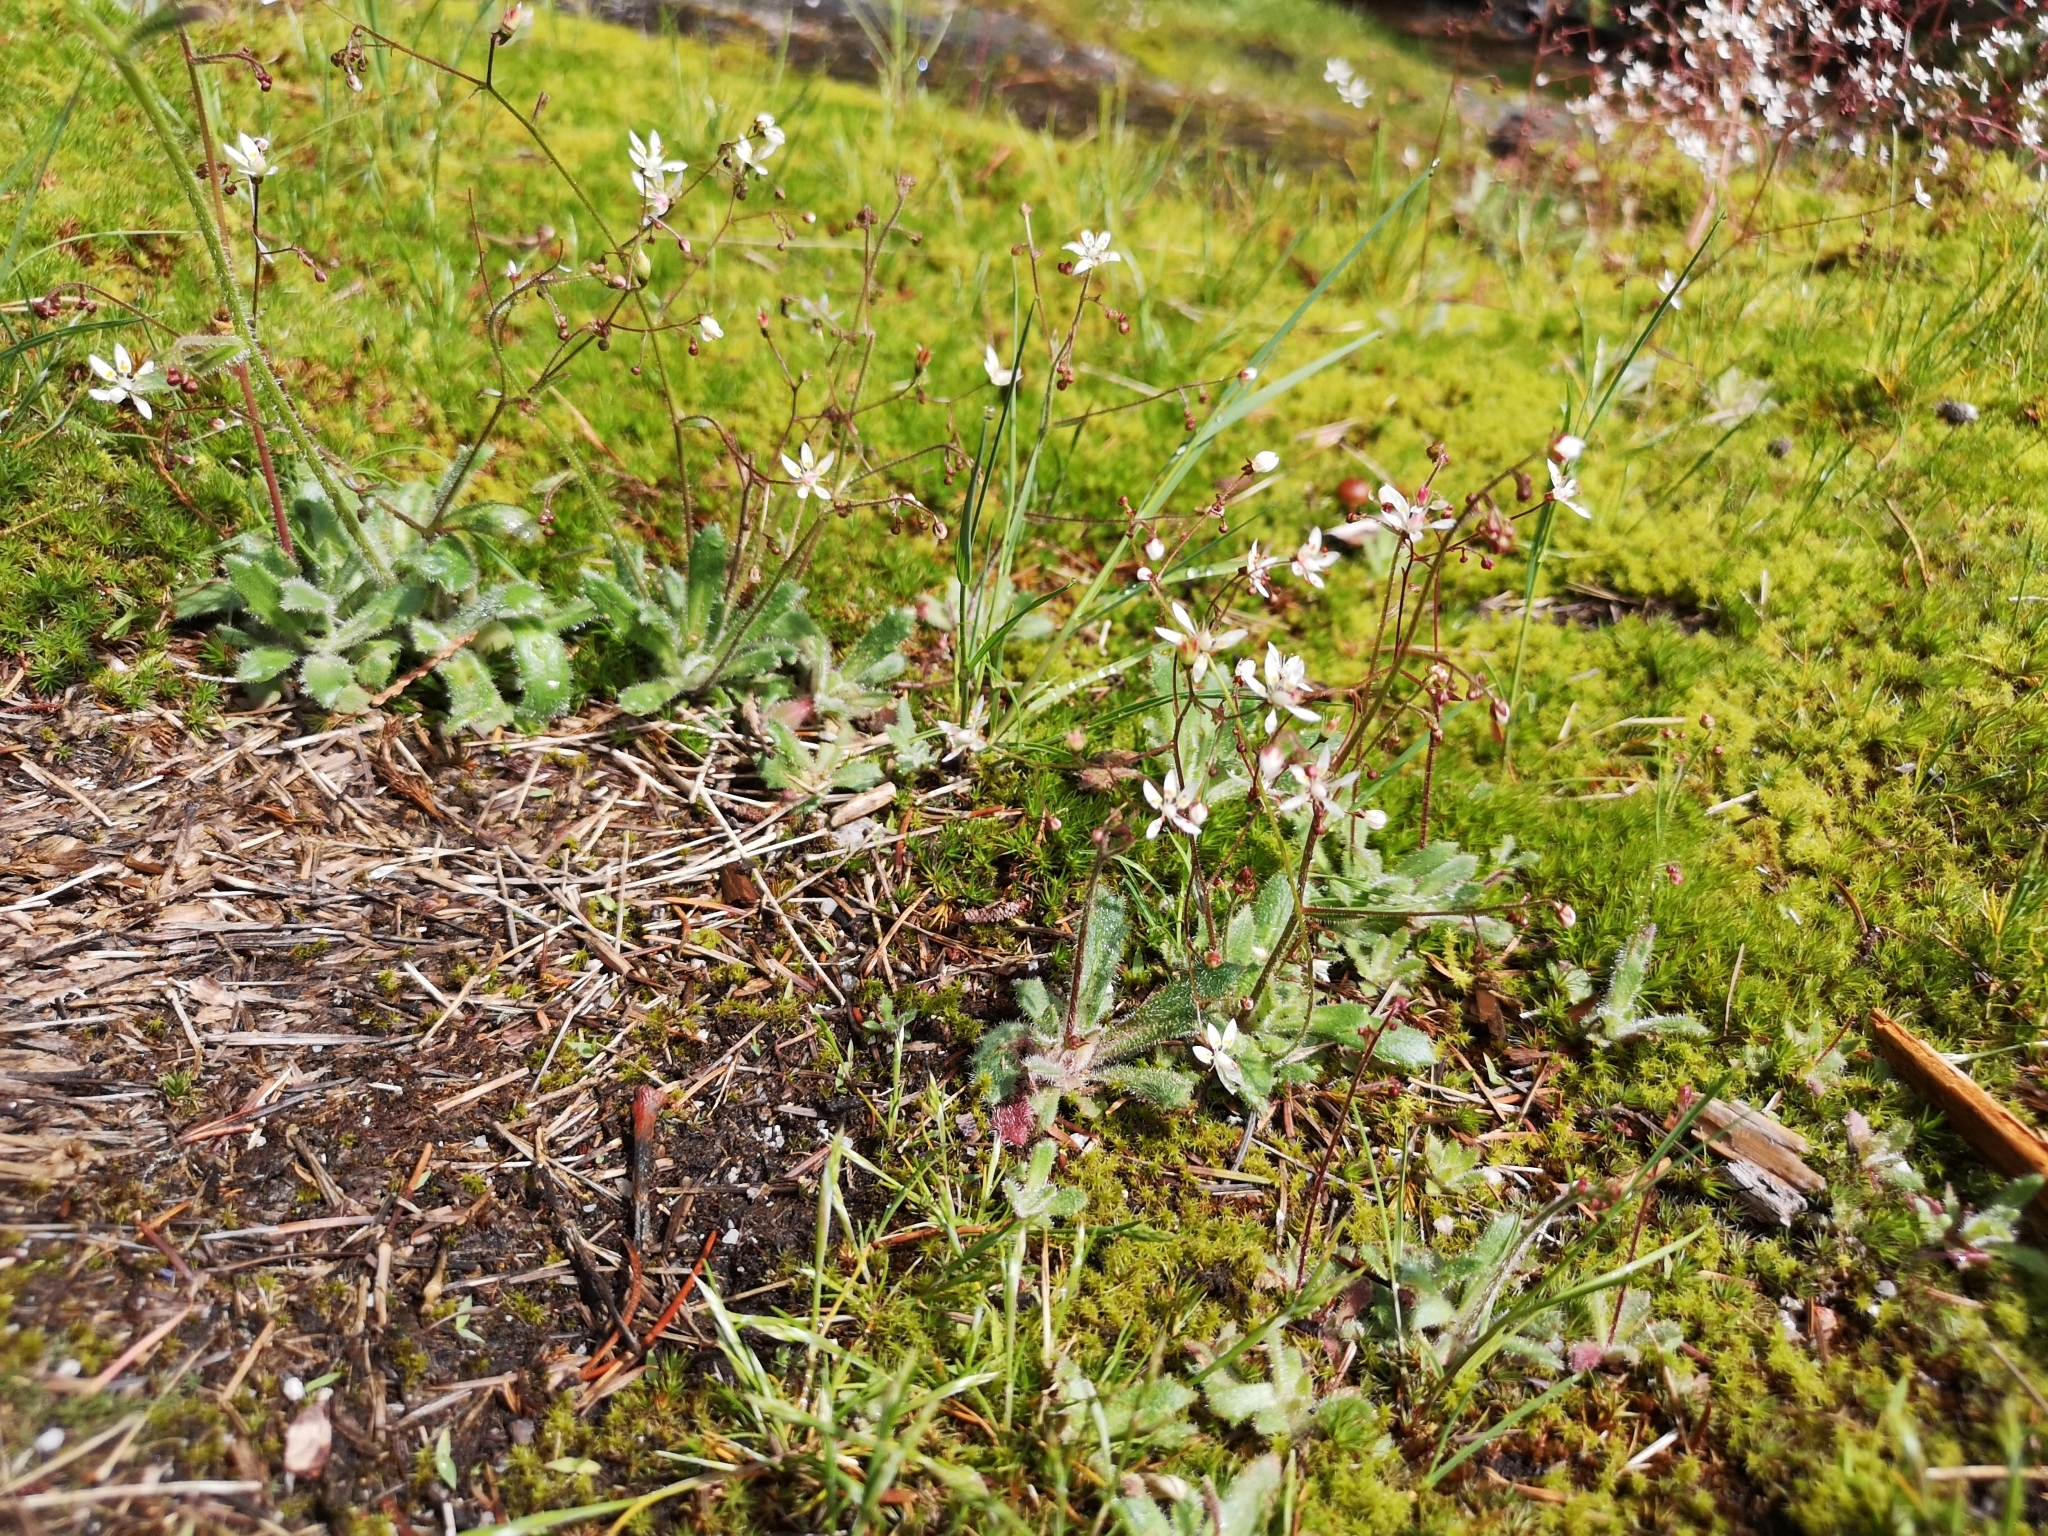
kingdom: Plantae
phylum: Tracheophyta
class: Magnoliopsida
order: Saxifragales
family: Saxifragaceae
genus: Micranthes
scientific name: Micranthes ferruginea
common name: Rusty saxifrage
